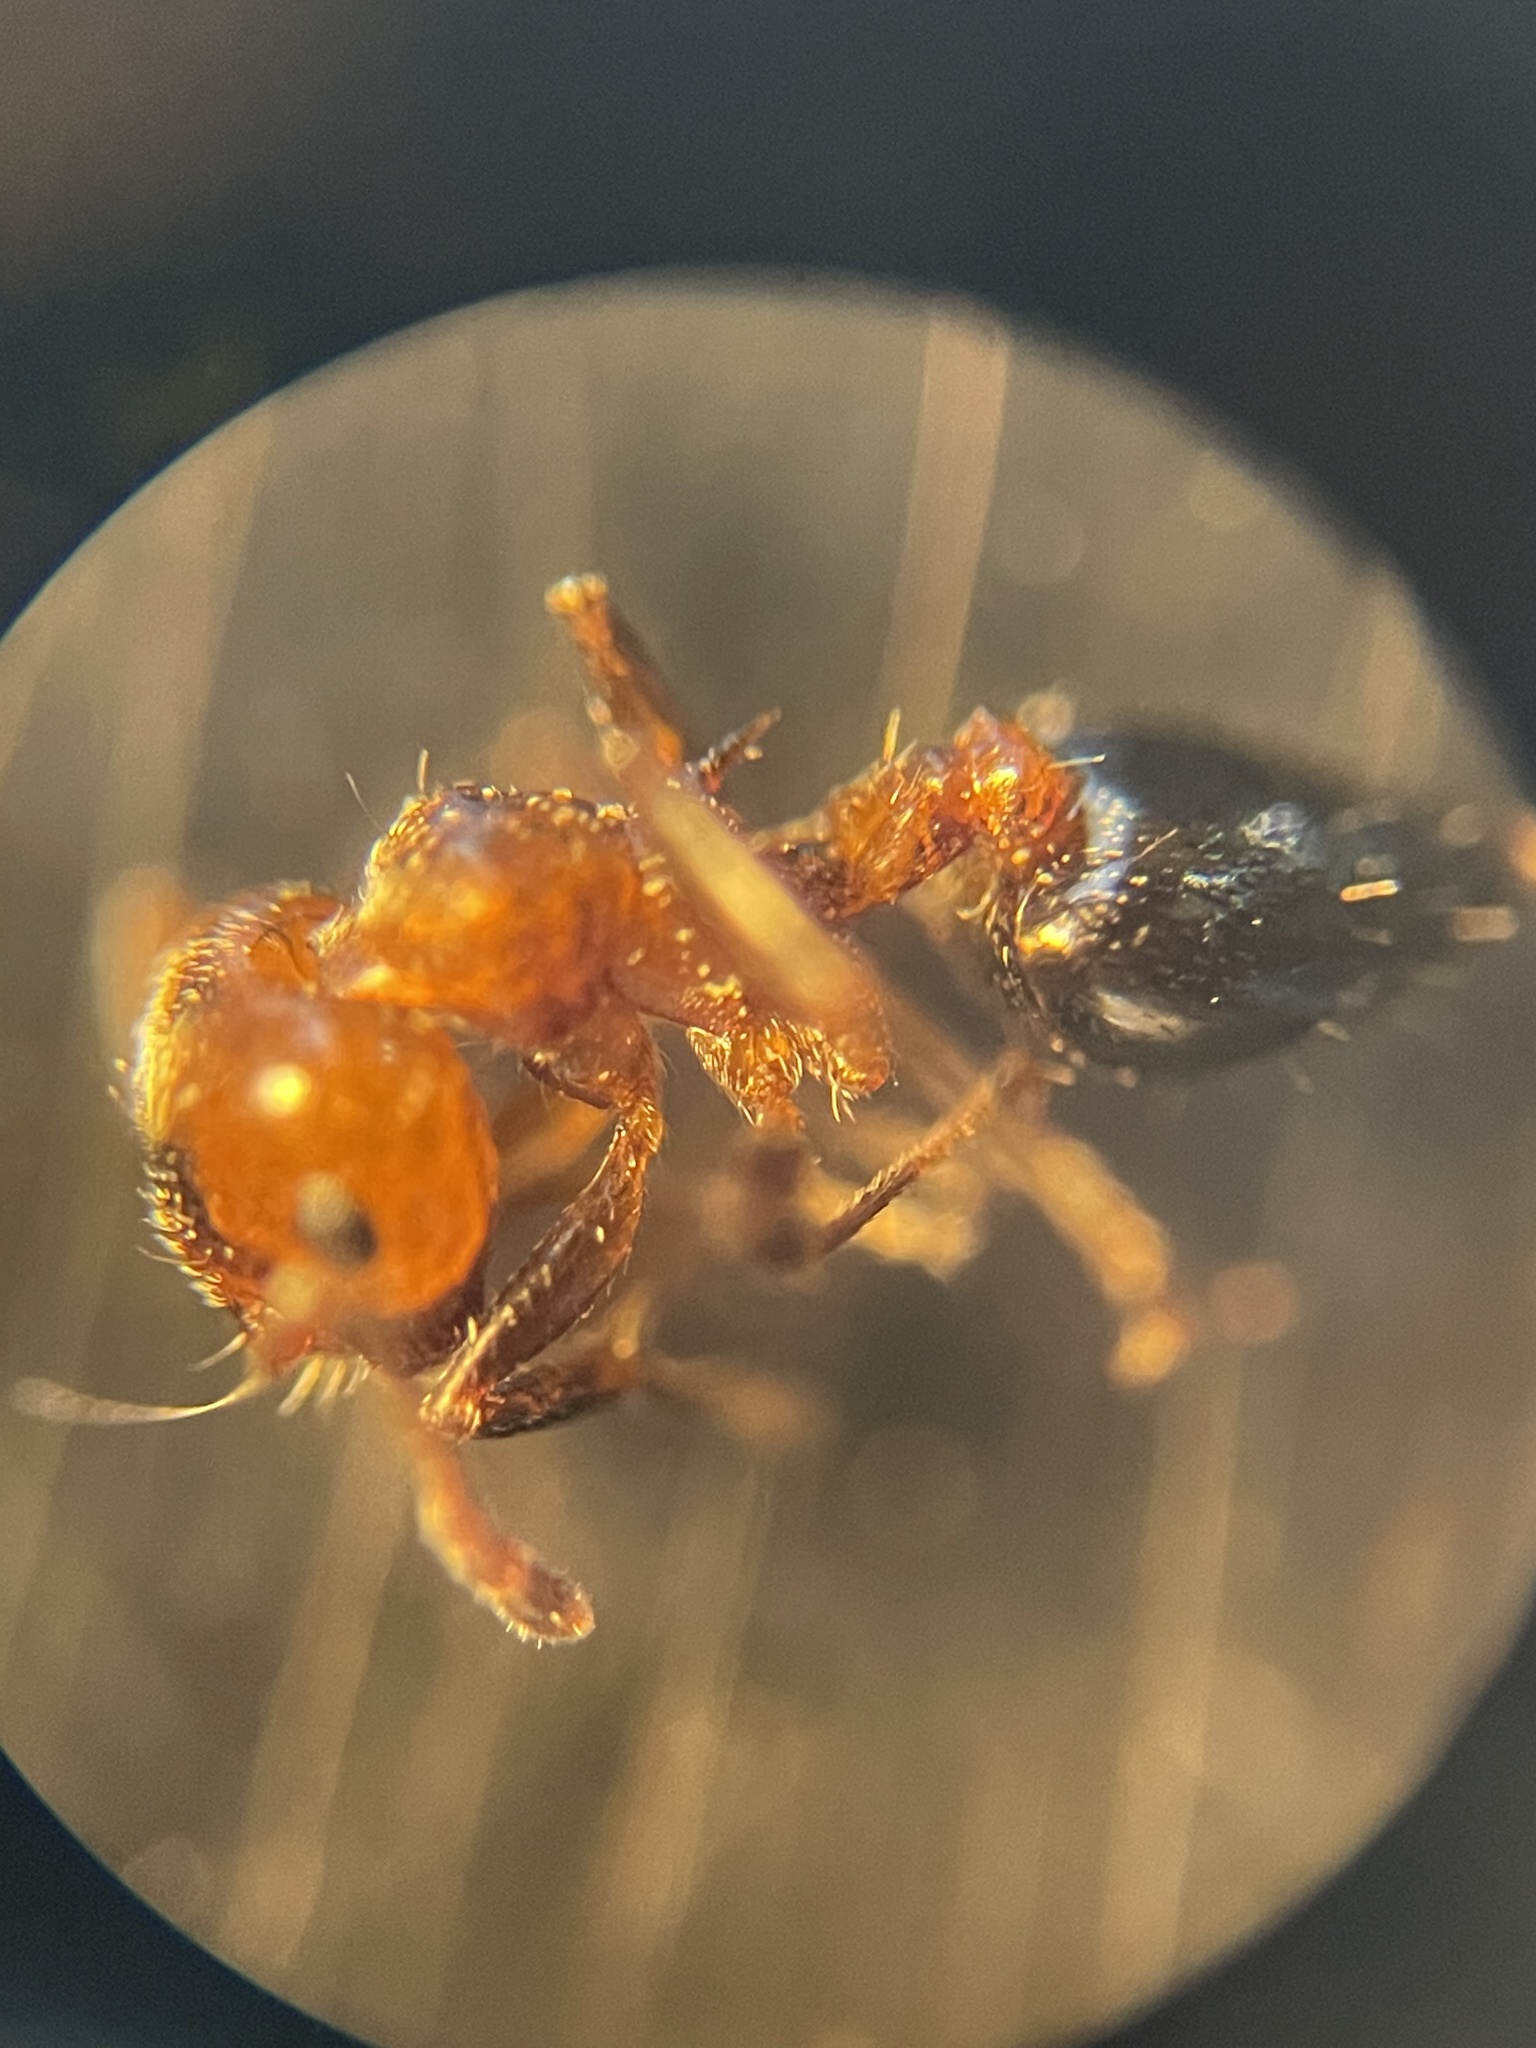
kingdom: Animalia
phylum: Arthropoda
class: Insecta
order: Hymenoptera
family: Formicidae
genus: Crematogaster
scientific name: Crematogaster laeviuscula
